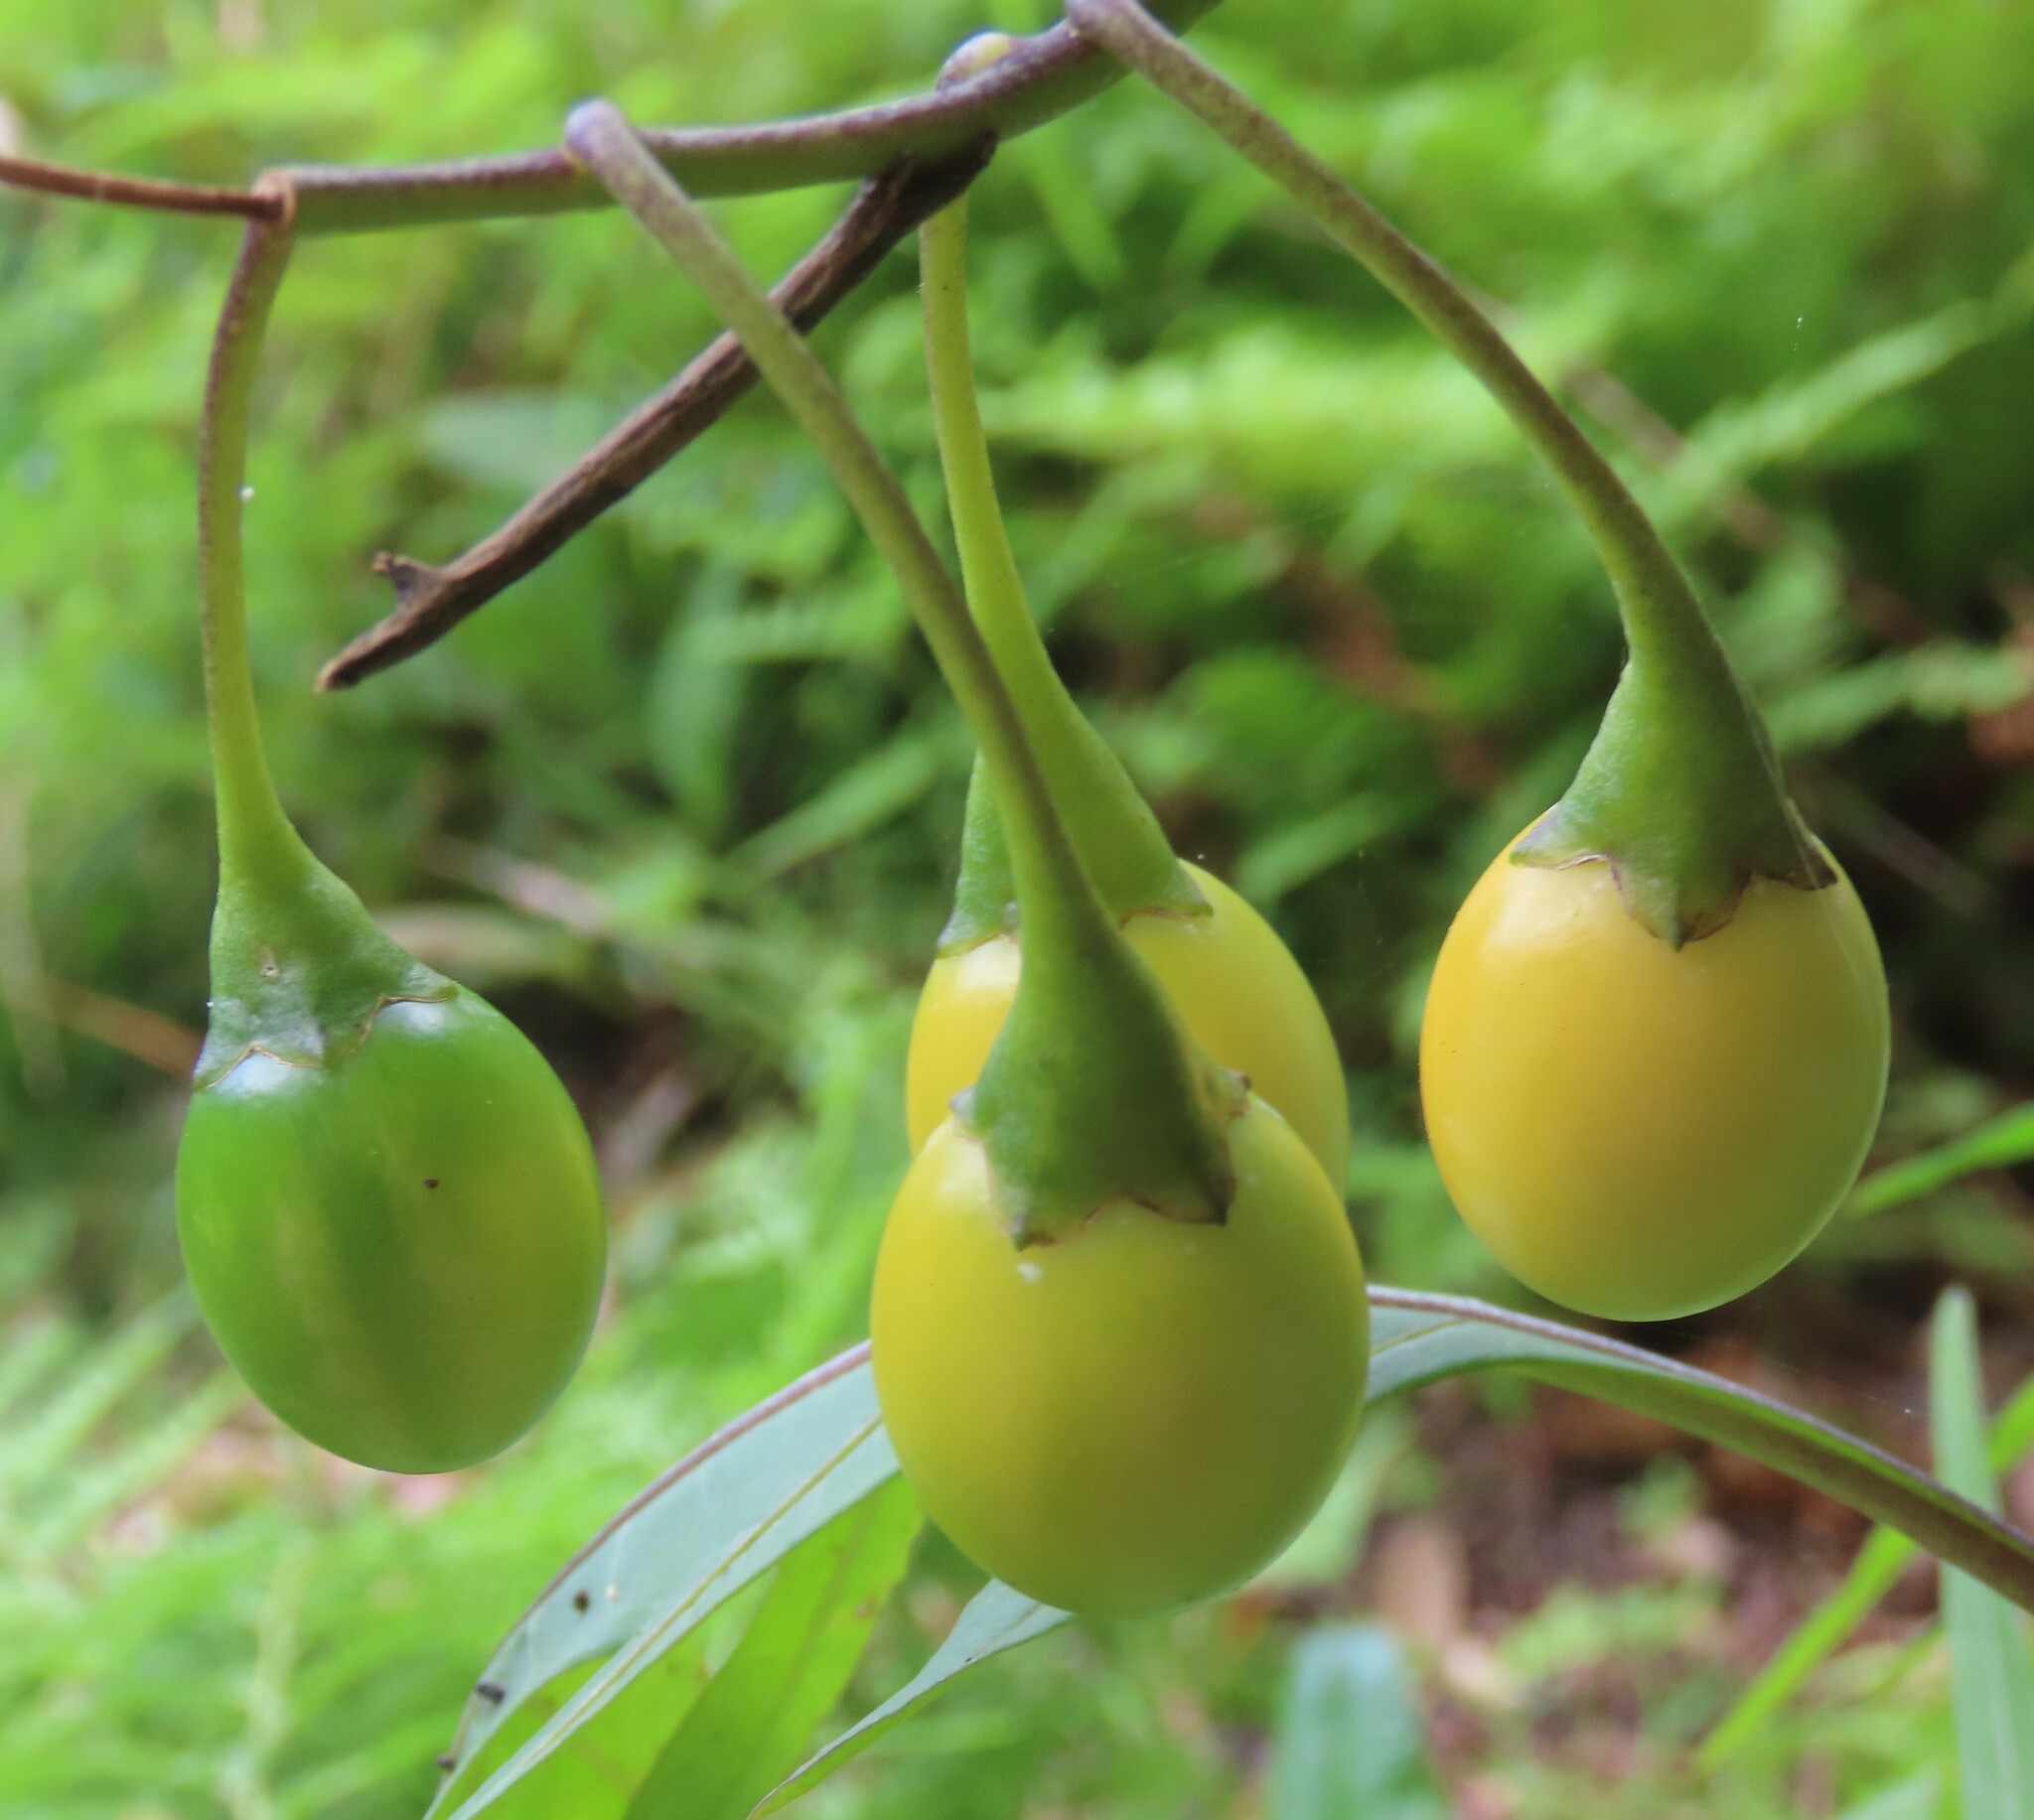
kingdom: Plantae
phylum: Tracheophyta
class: Magnoliopsida
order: Solanales
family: Solanaceae
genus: Solanum
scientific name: Solanum laciniatum
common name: Kangaroo-apple
